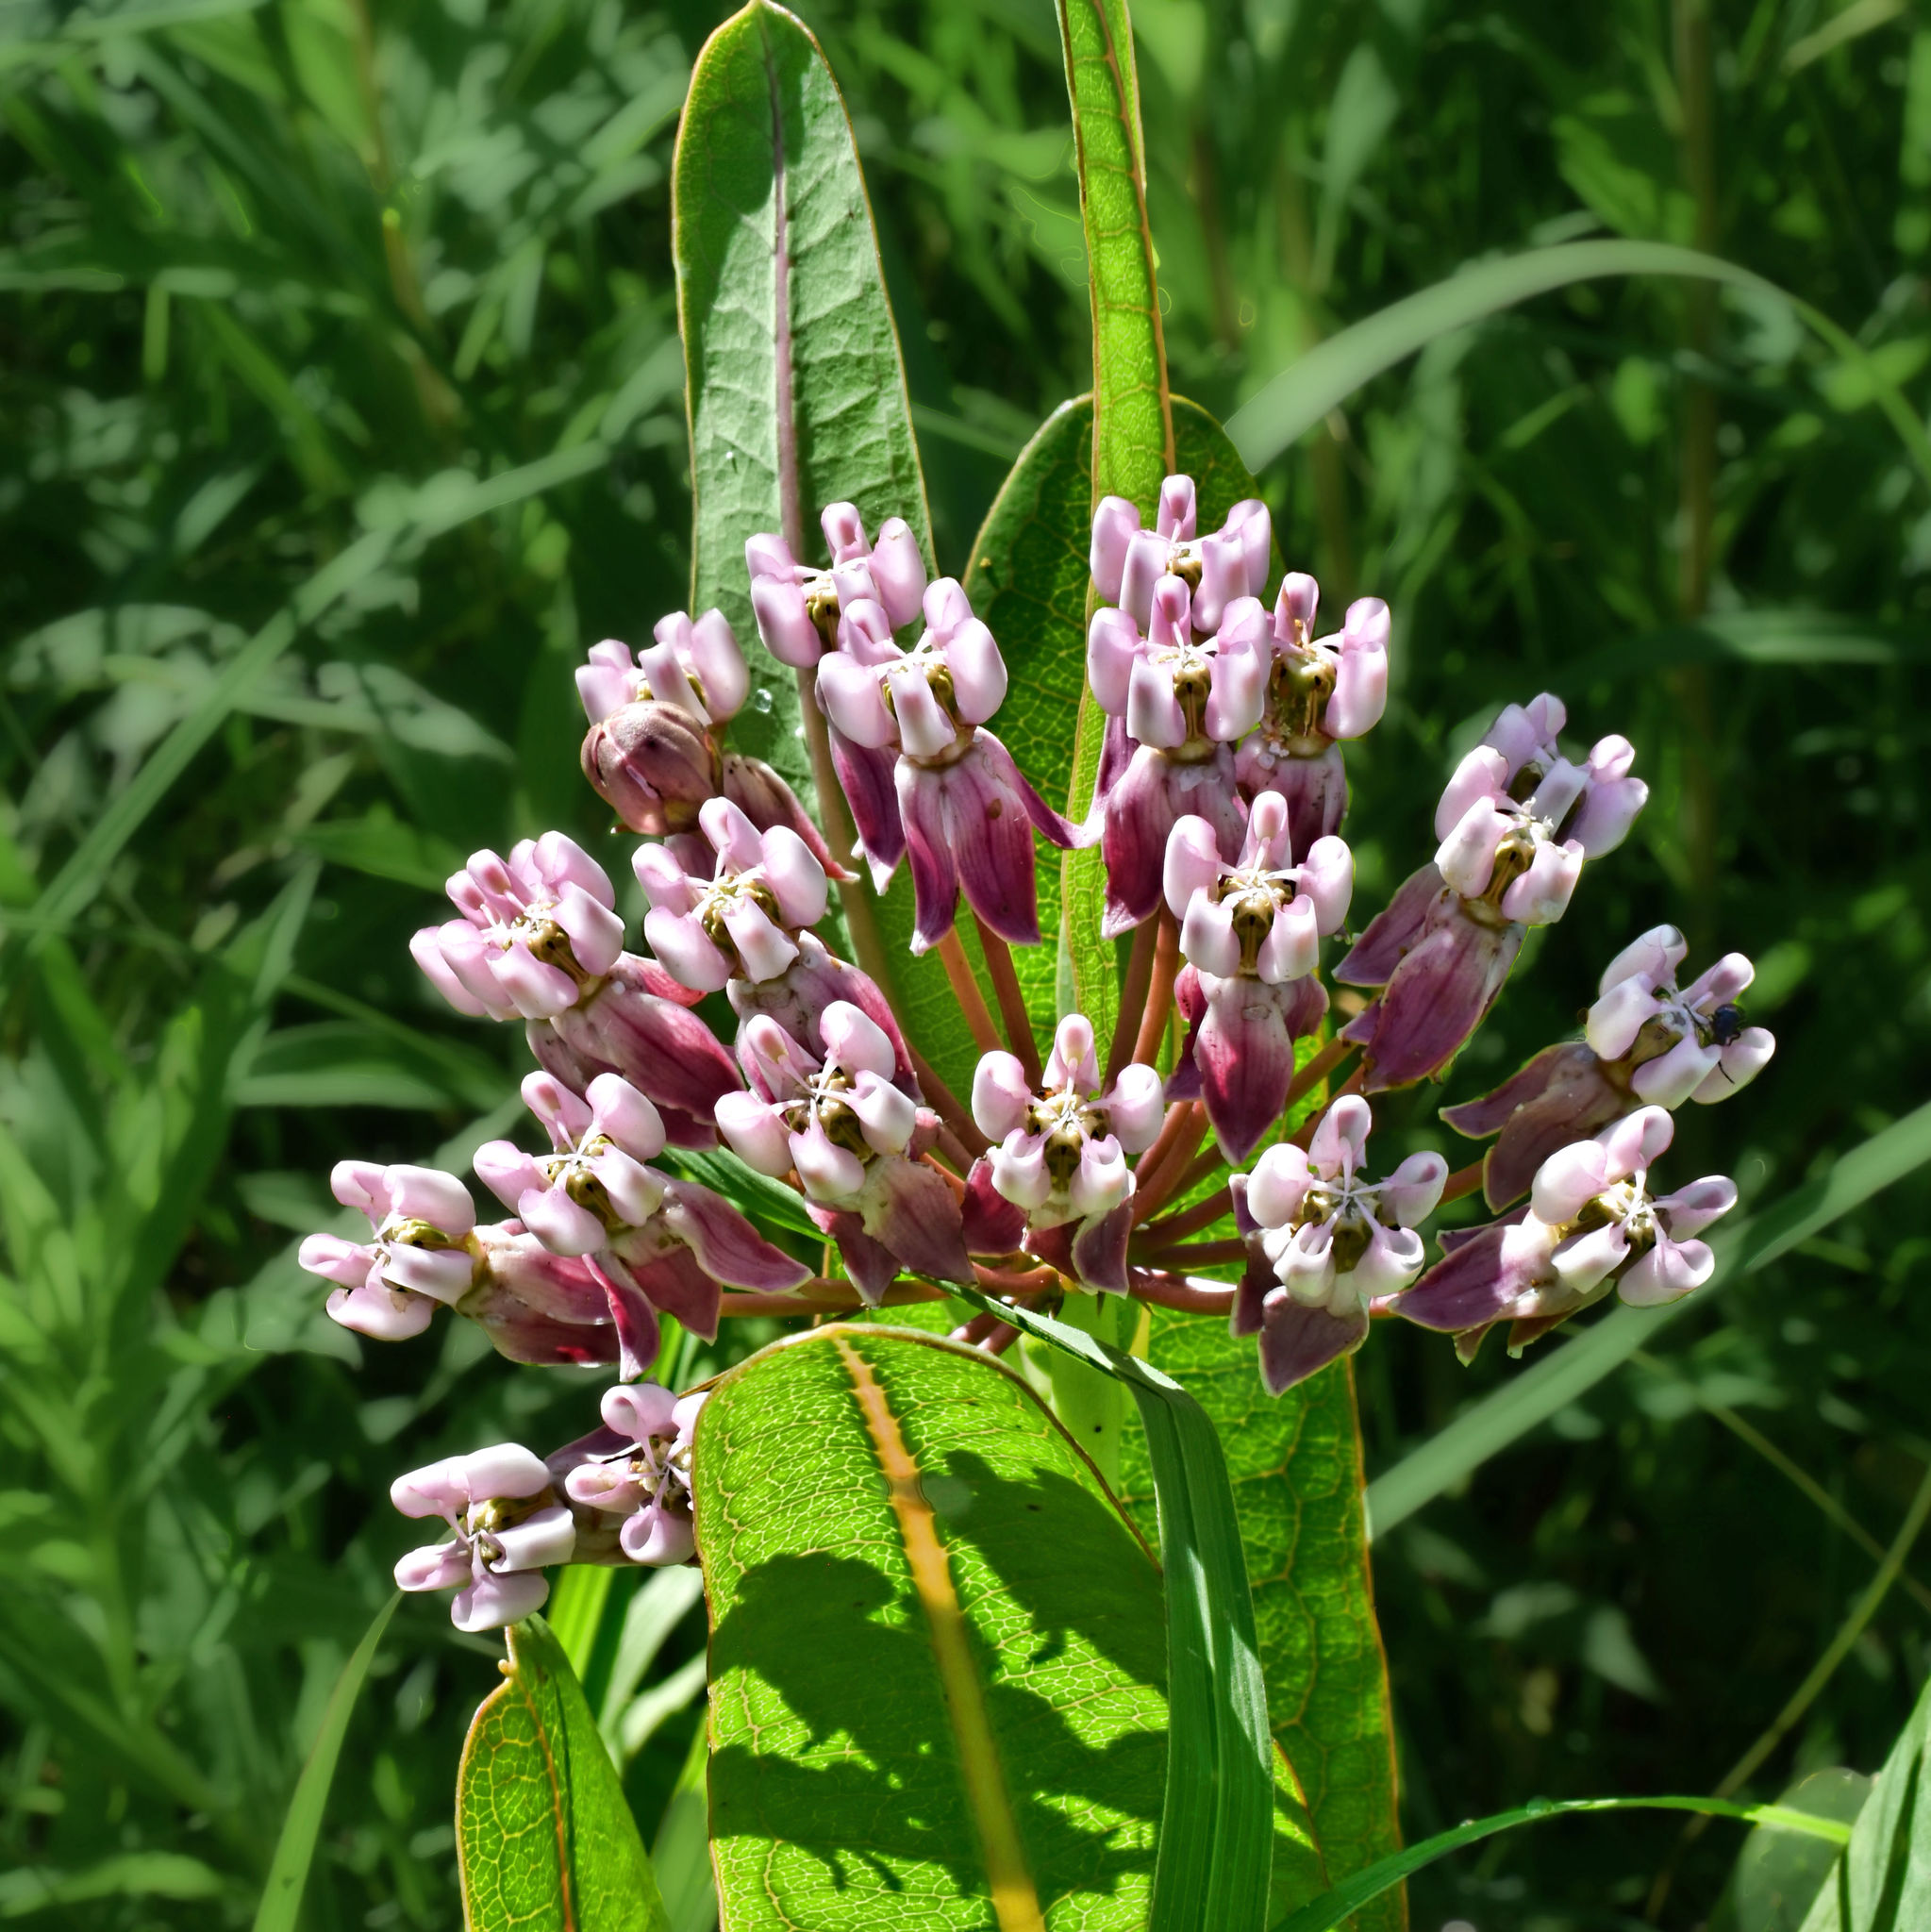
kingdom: Plantae
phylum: Tracheophyta
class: Magnoliopsida
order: Gentianales
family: Apocynaceae
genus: Asclepias
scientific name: Asclepias sullivantii
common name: Prairie milkweed
